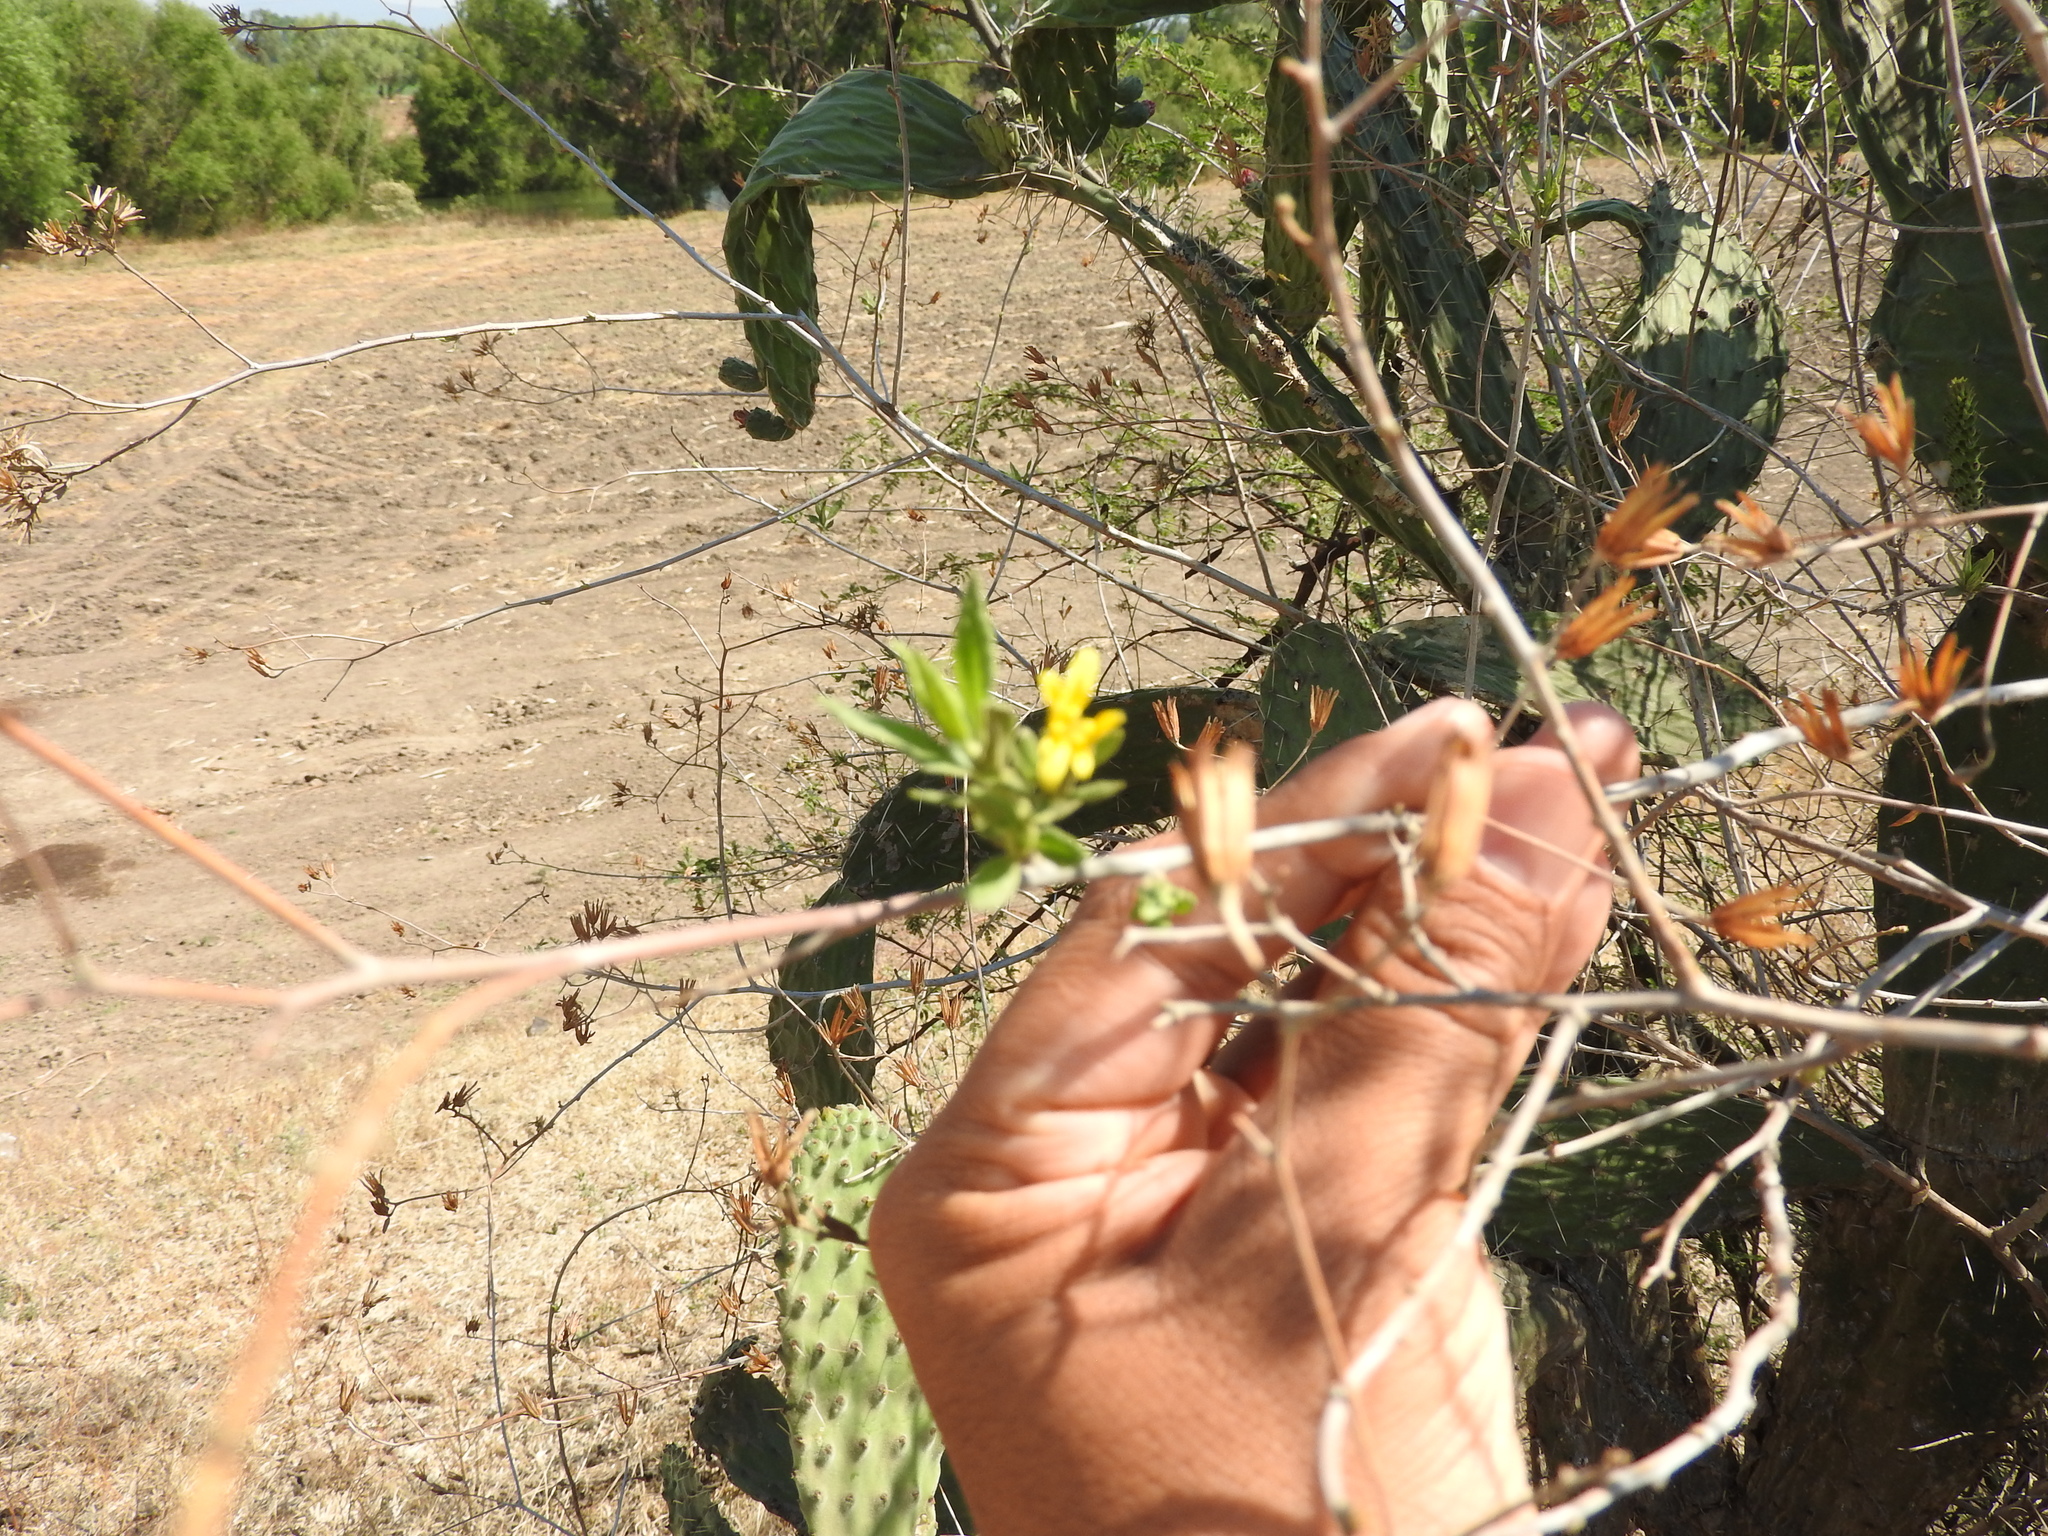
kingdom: Plantae
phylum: Tracheophyta
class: Magnoliopsida
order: Asterales
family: Asteraceae
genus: Trixis
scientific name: Trixis mexicana
